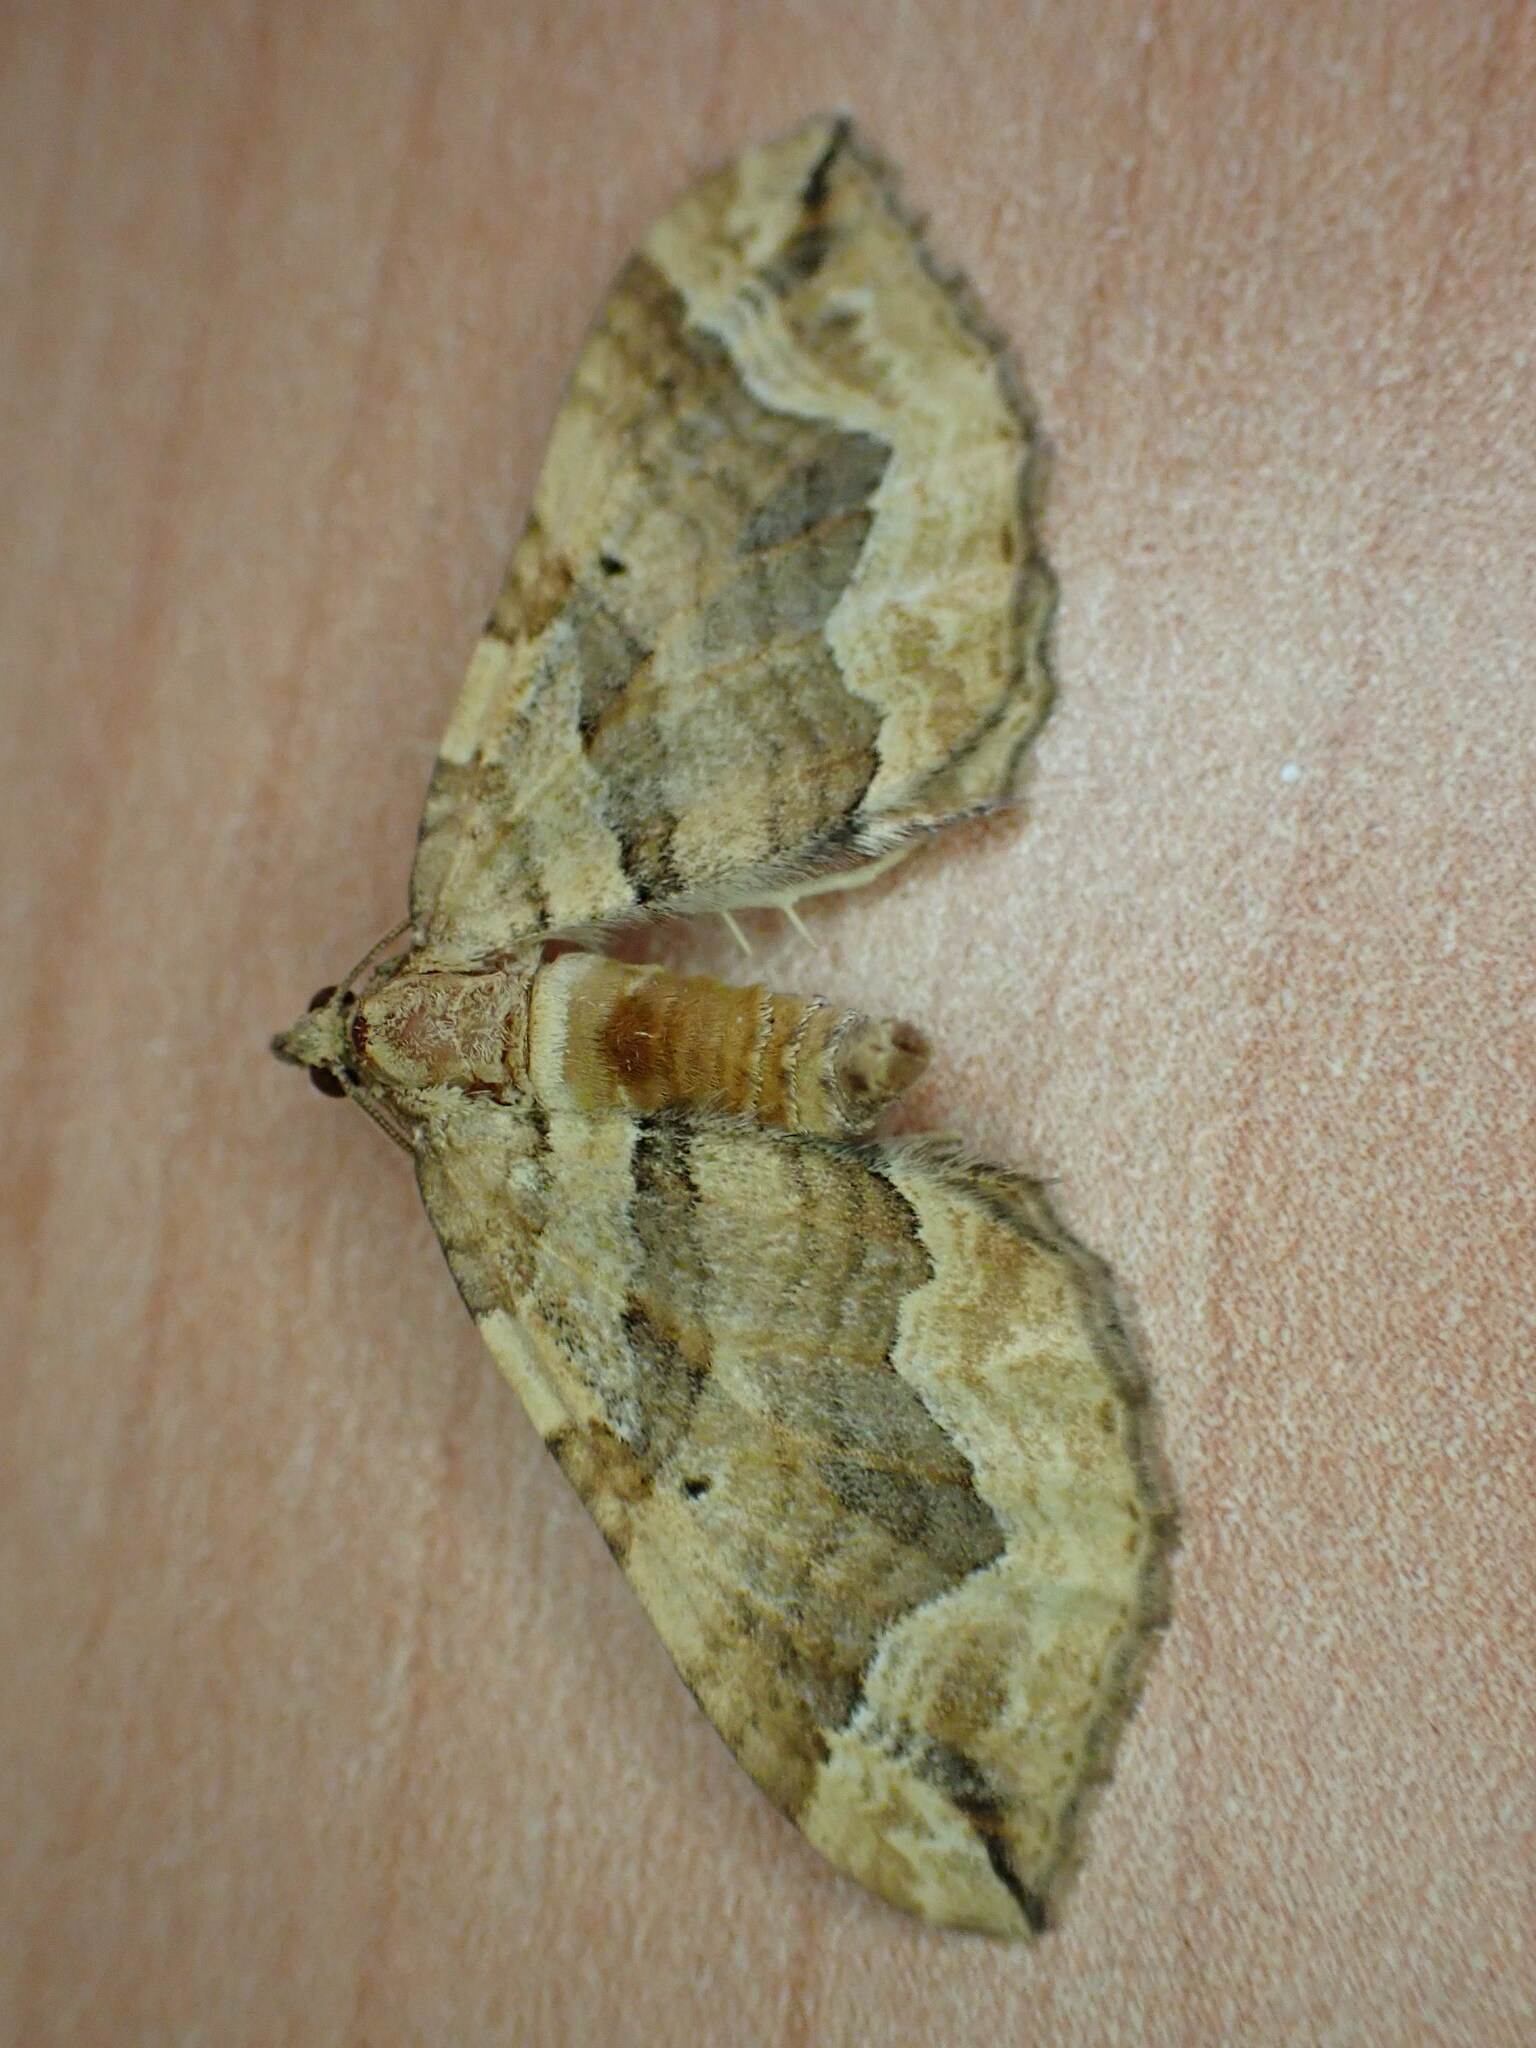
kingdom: Animalia
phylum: Arthropoda
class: Insecta
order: Lepidoptera
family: Geometridae
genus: Pelurga
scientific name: Pelurga comitata
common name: Dark spinach
